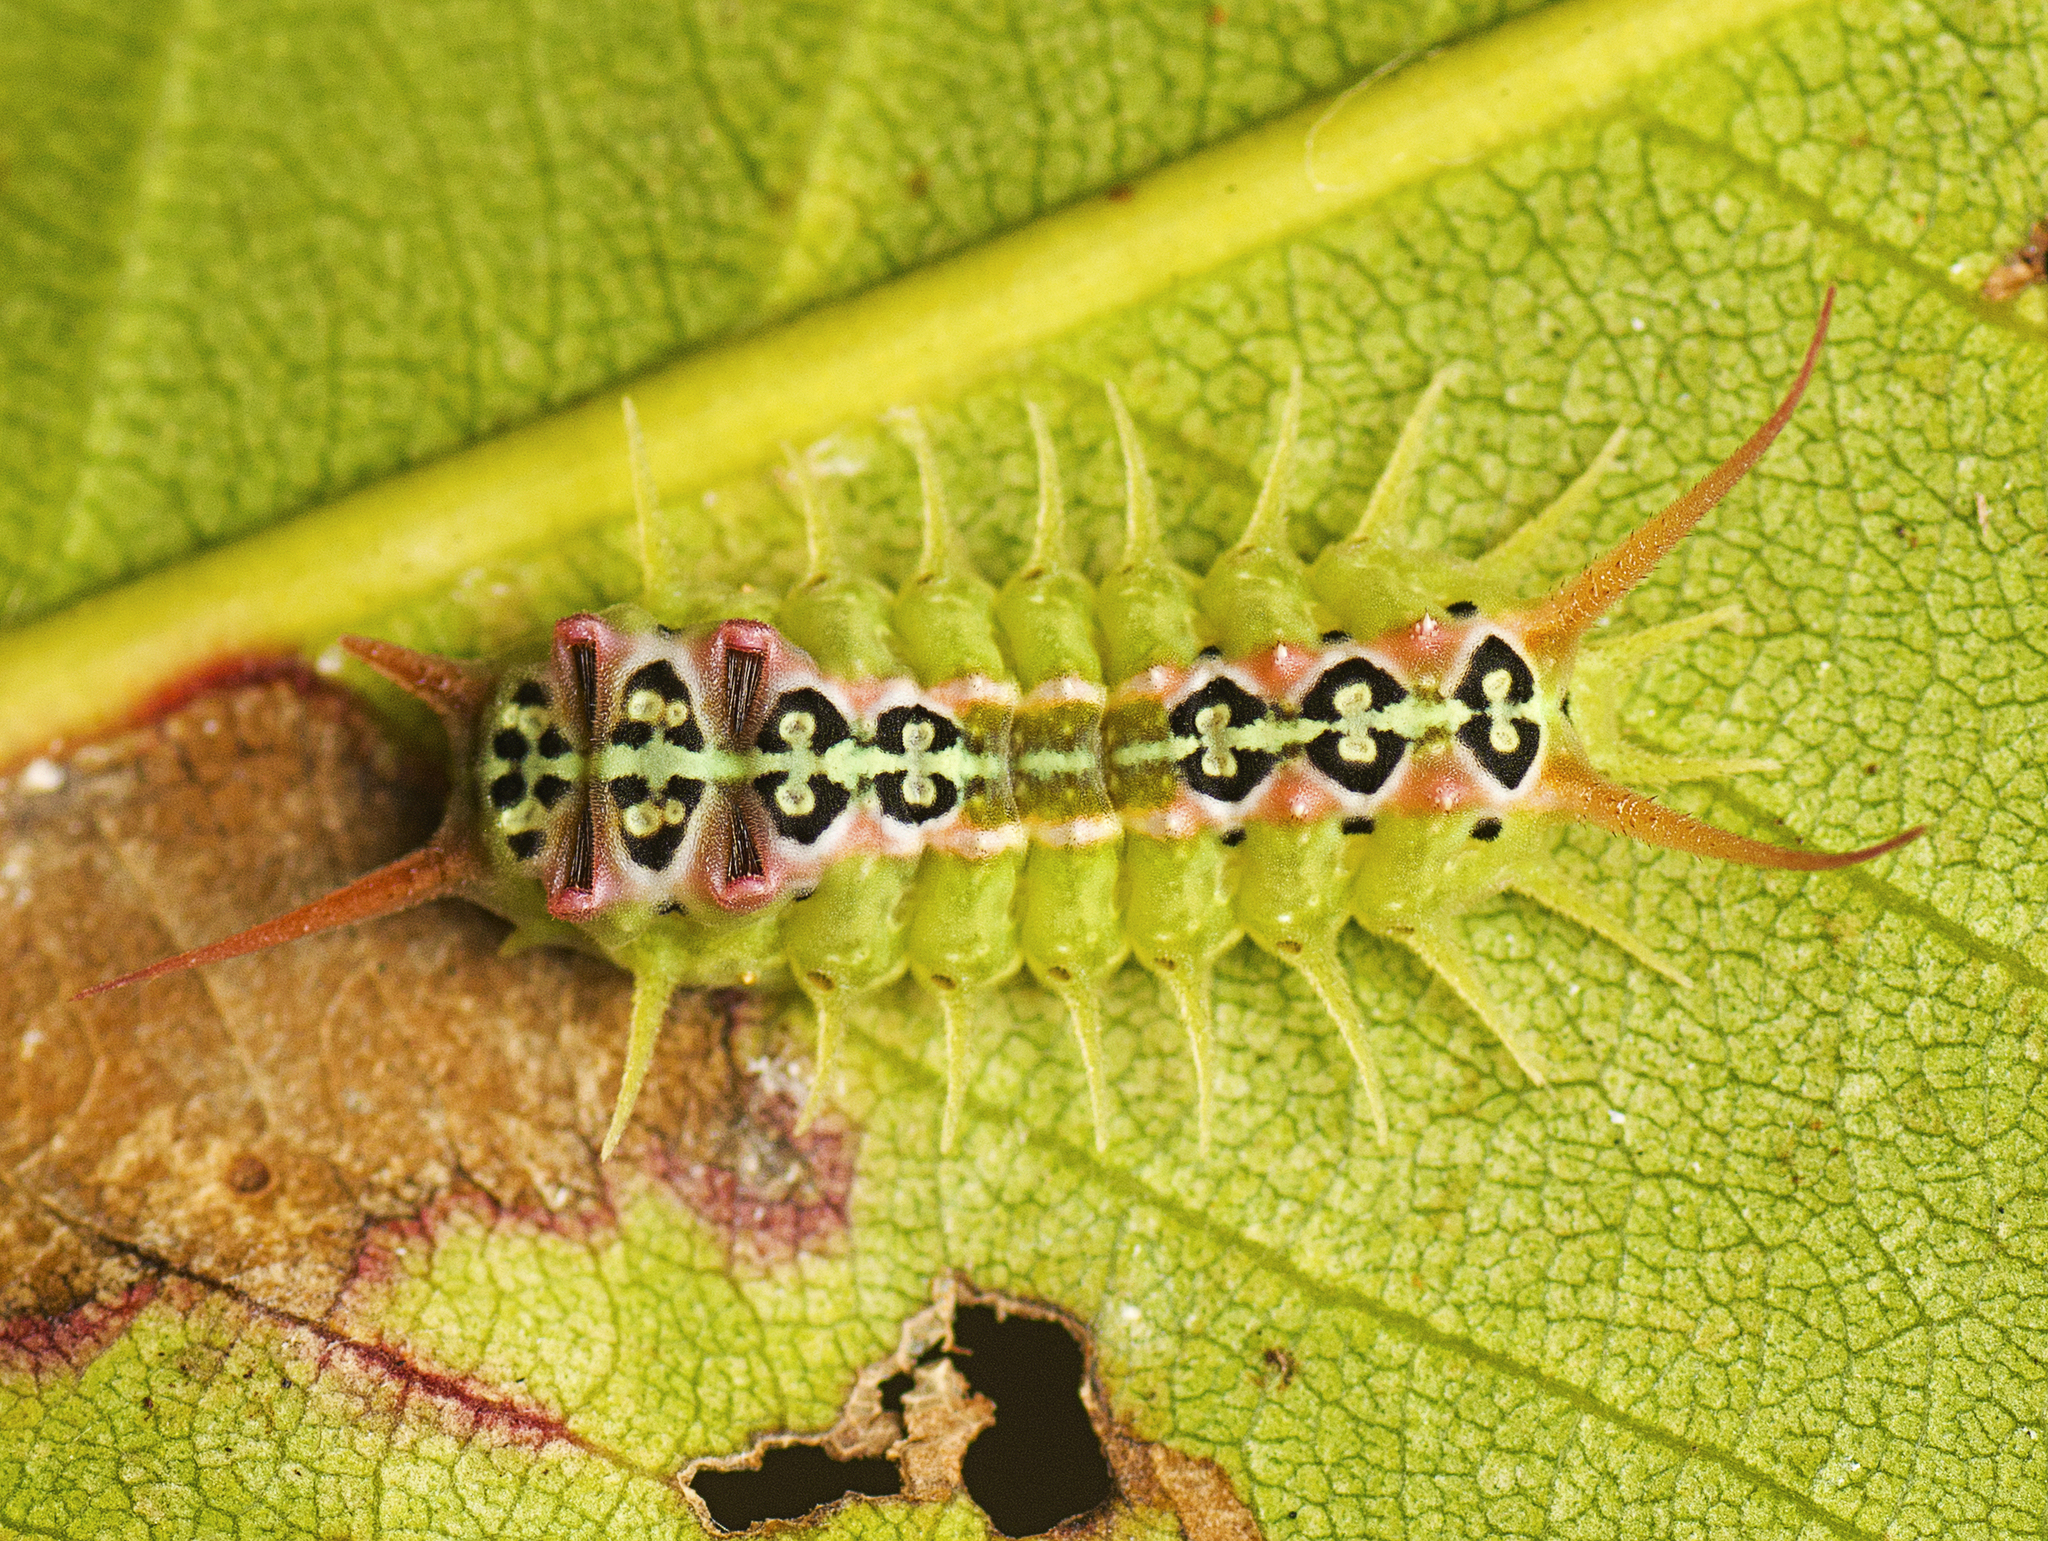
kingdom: Animalia
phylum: Arthropoda
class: Insecta
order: Lepidoptera
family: Limacodidae
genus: Doratifera
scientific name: Doratifera quadriguttata
